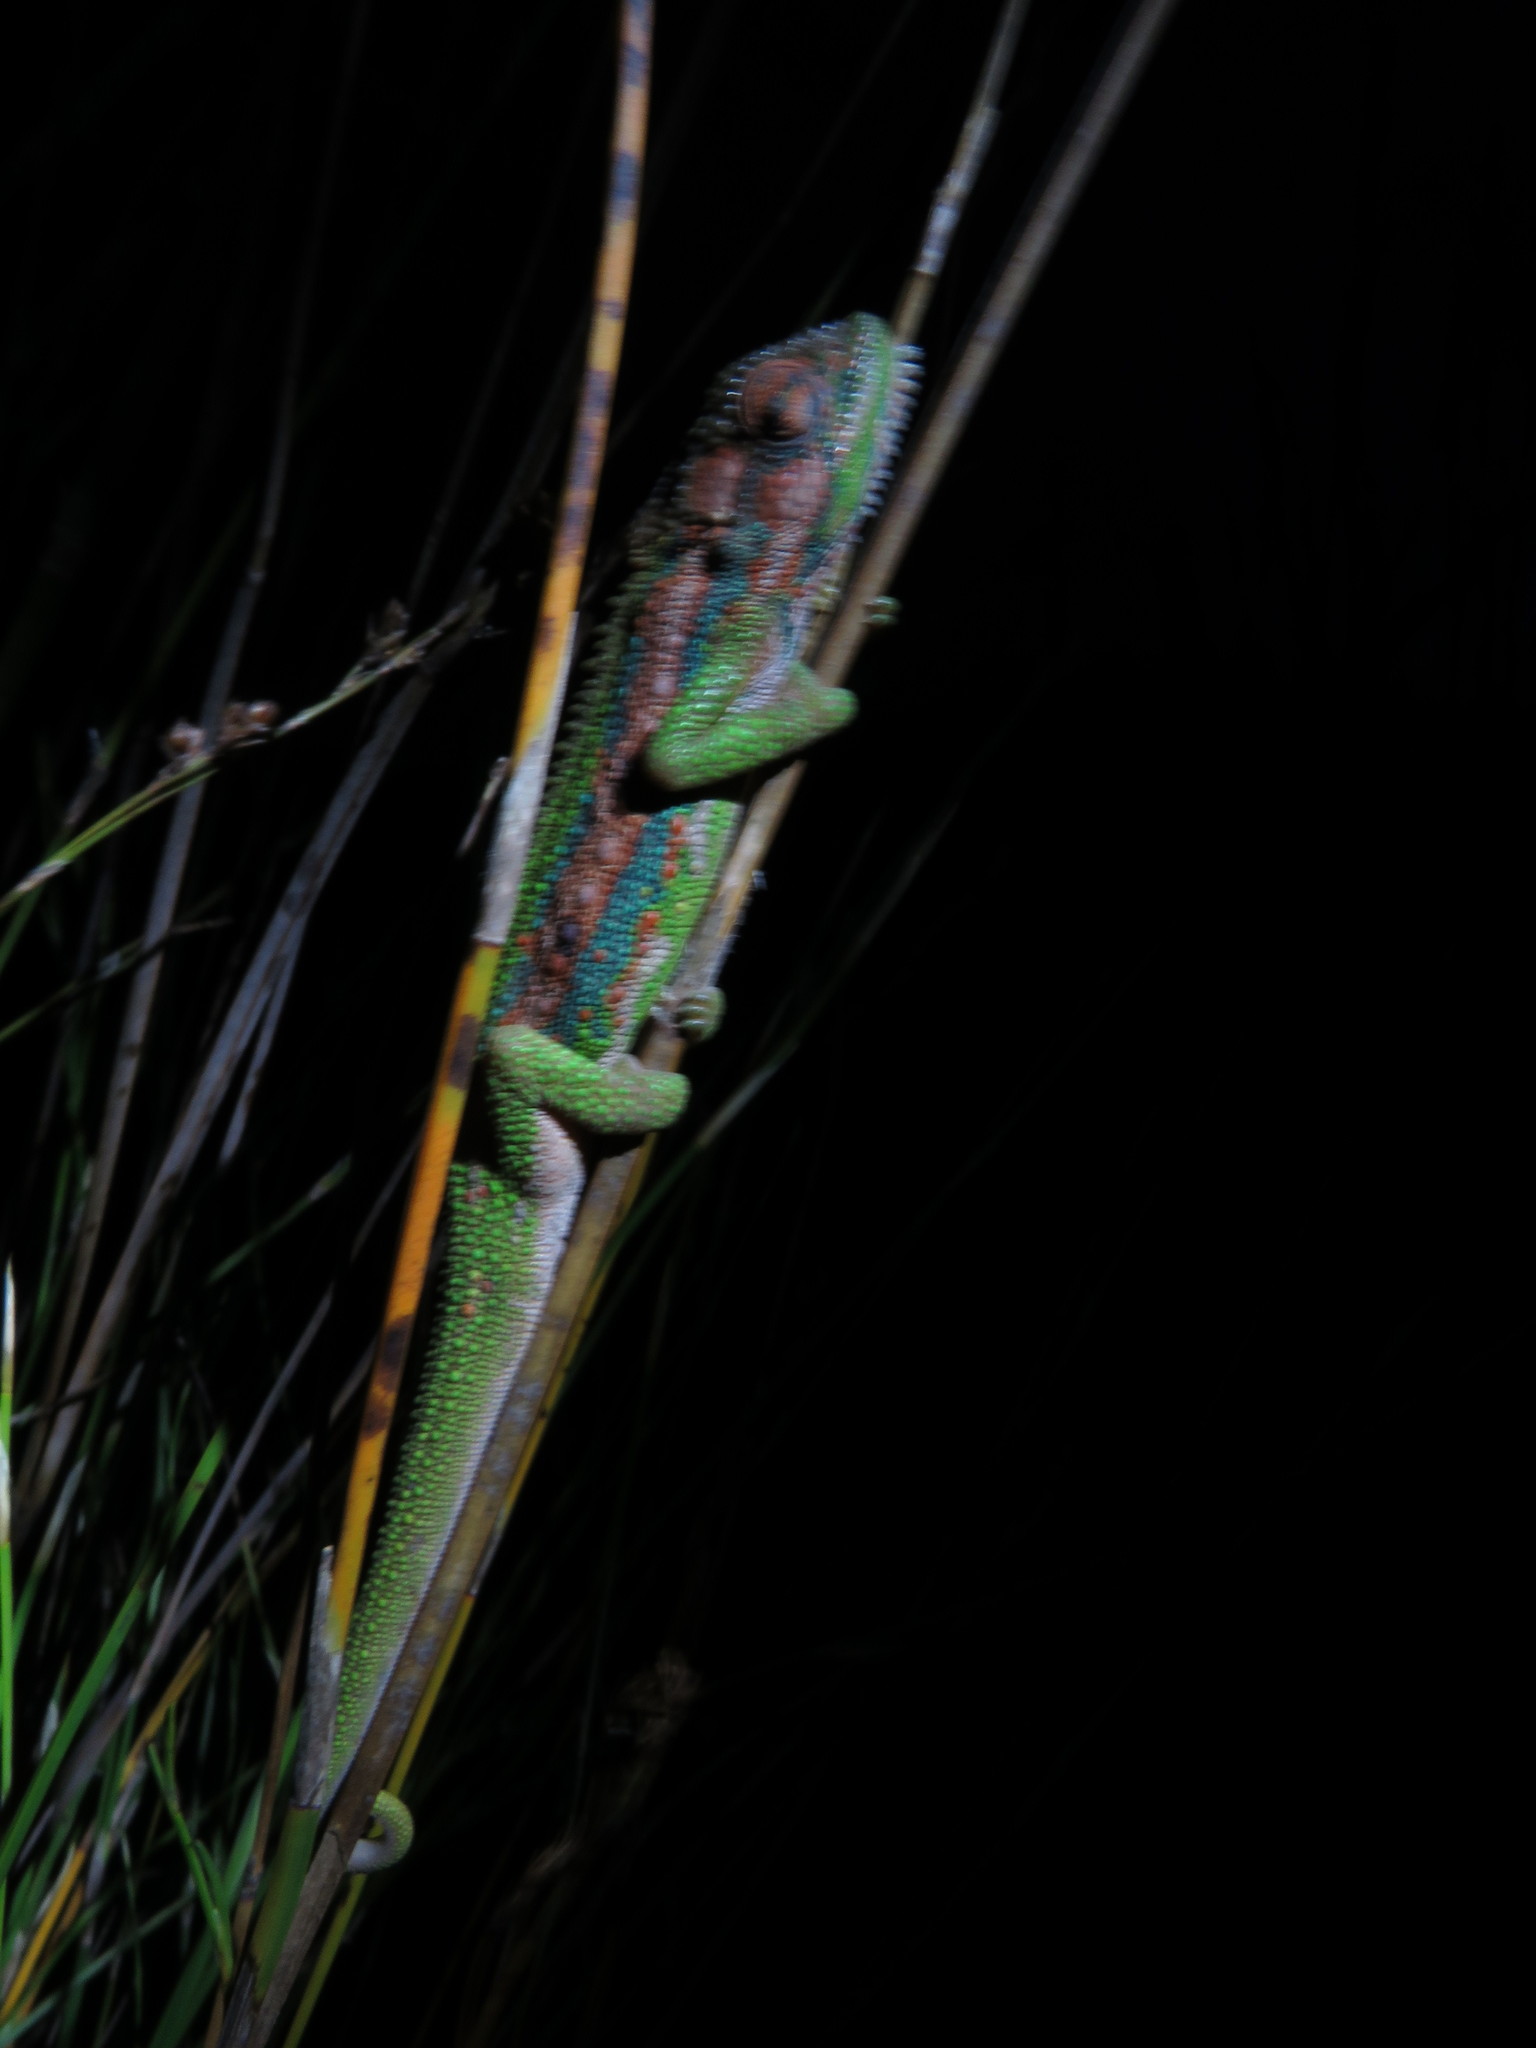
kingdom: Animalia
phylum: Chordata
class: Squamata
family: Chamaeleonidae
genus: Bradypodion
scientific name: Bradypodion pumilum
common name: Cape dwarf chameleon
